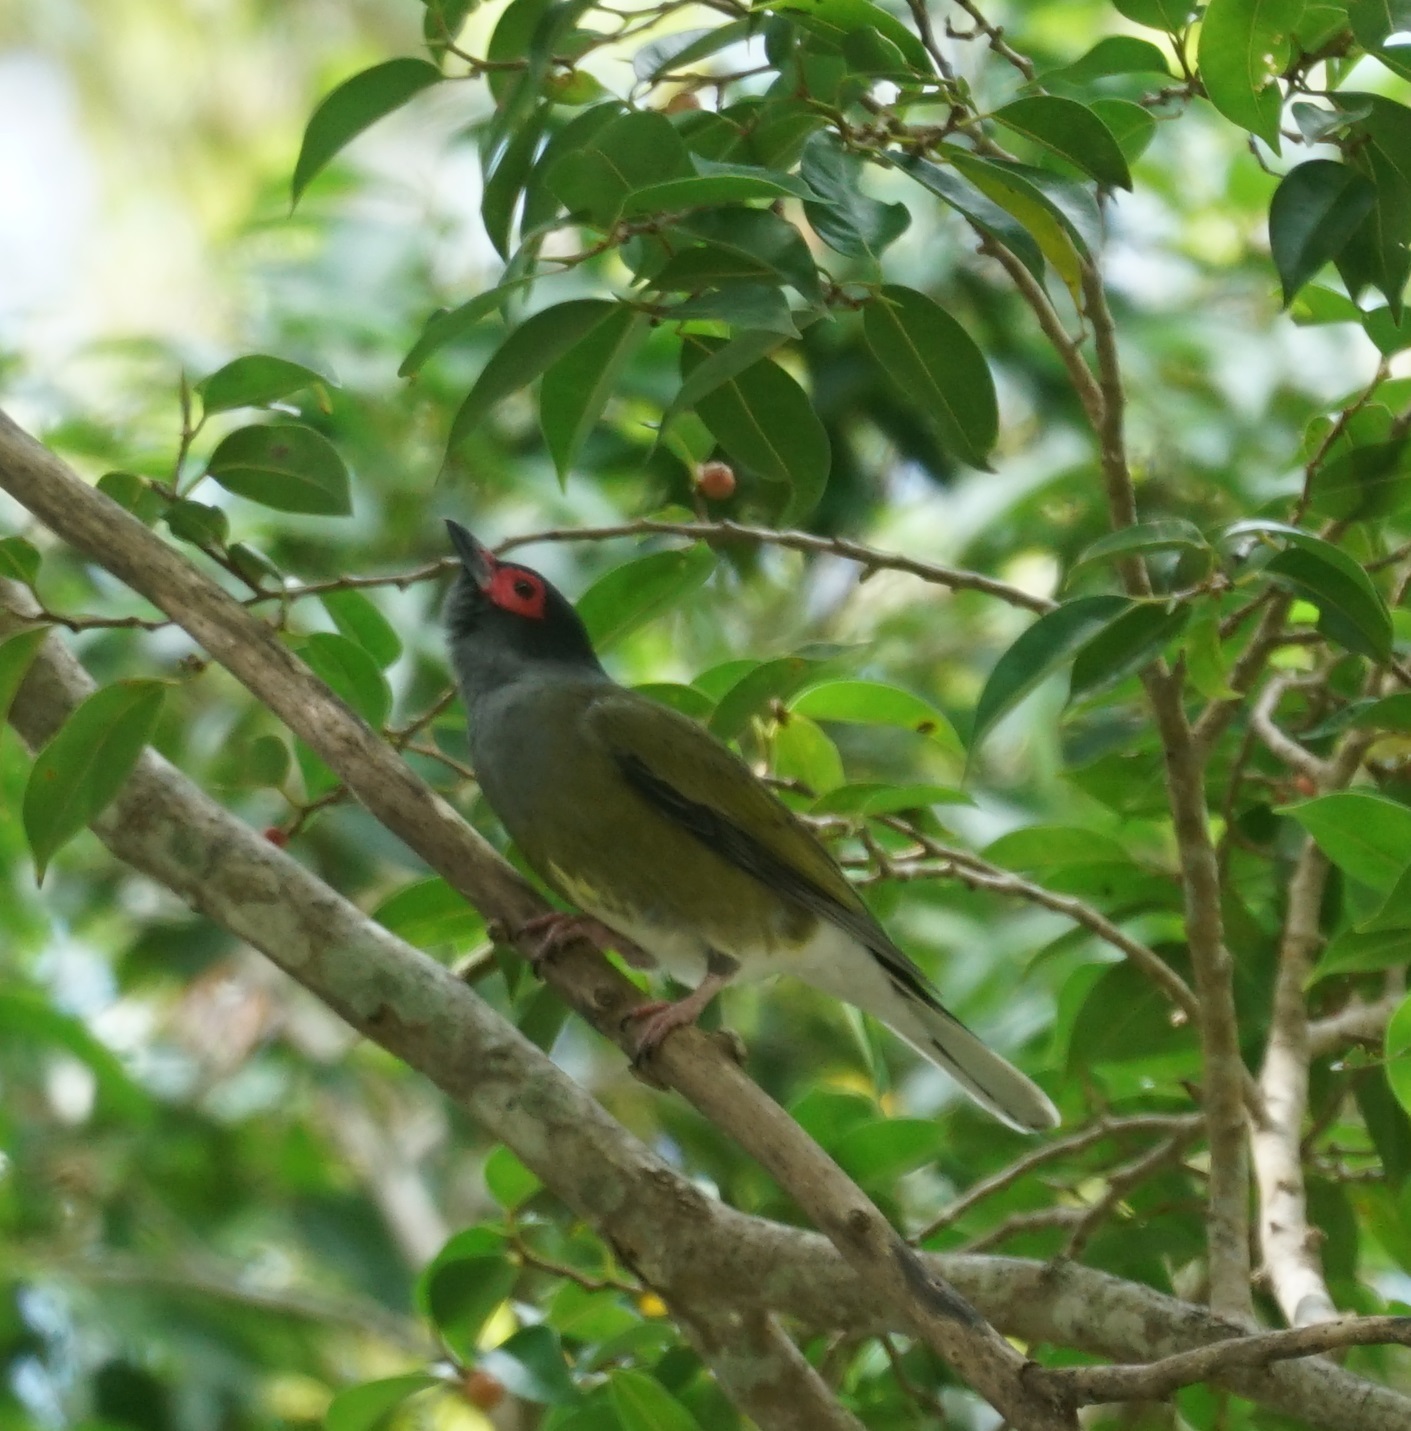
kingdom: Animalia
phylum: Chordata
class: Aves
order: Passeriformes
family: Oriolidae
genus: Sphecotheres
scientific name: Sphecotheres vieilloti
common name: Australasian figbird
